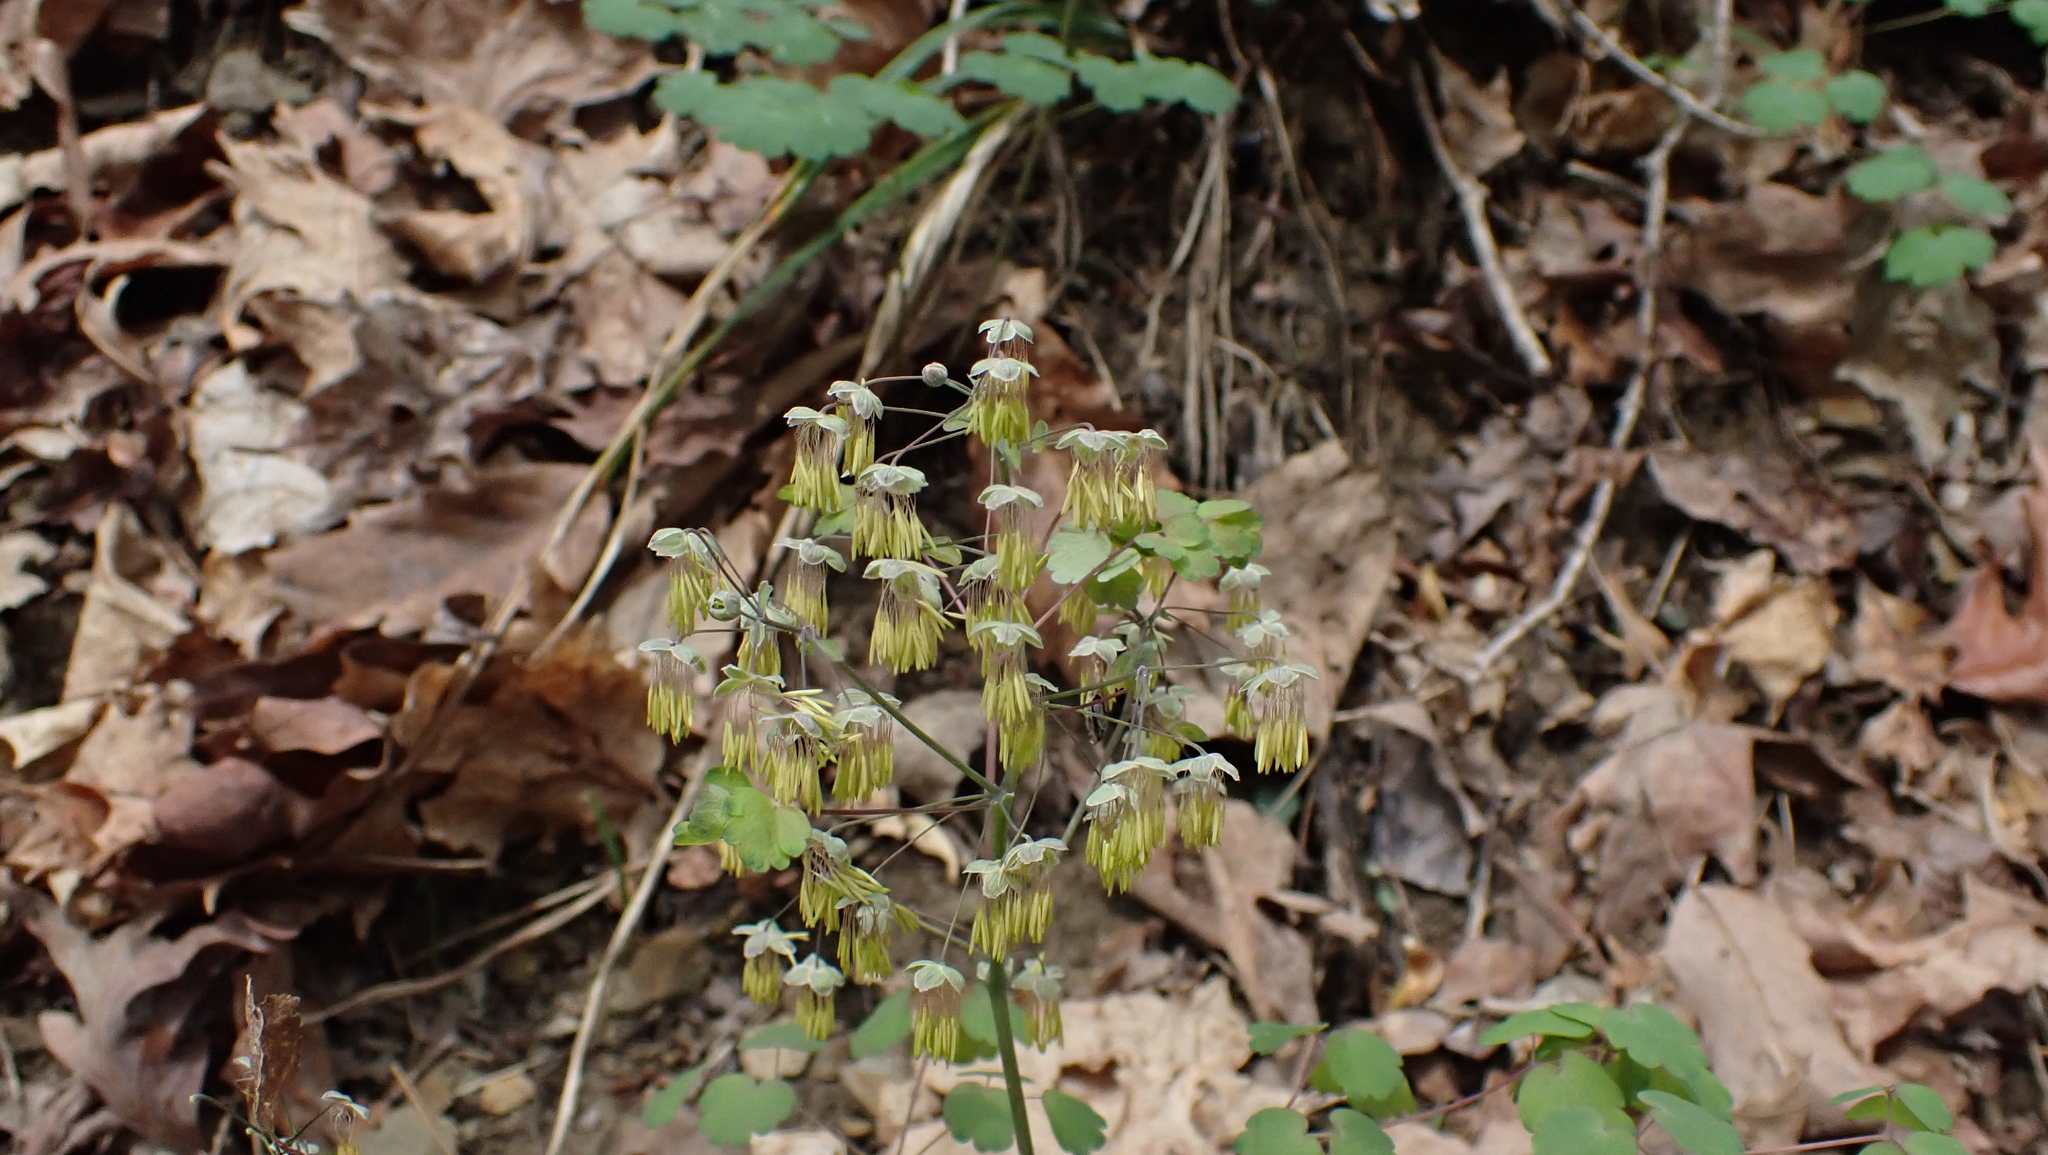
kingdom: Plantae
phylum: Tracheophyta
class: Magnoliopsida
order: Ranunculales
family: Ranunculaceae
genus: Thalictrum
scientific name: Thalictrum dioicum
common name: Early meadow-rue
